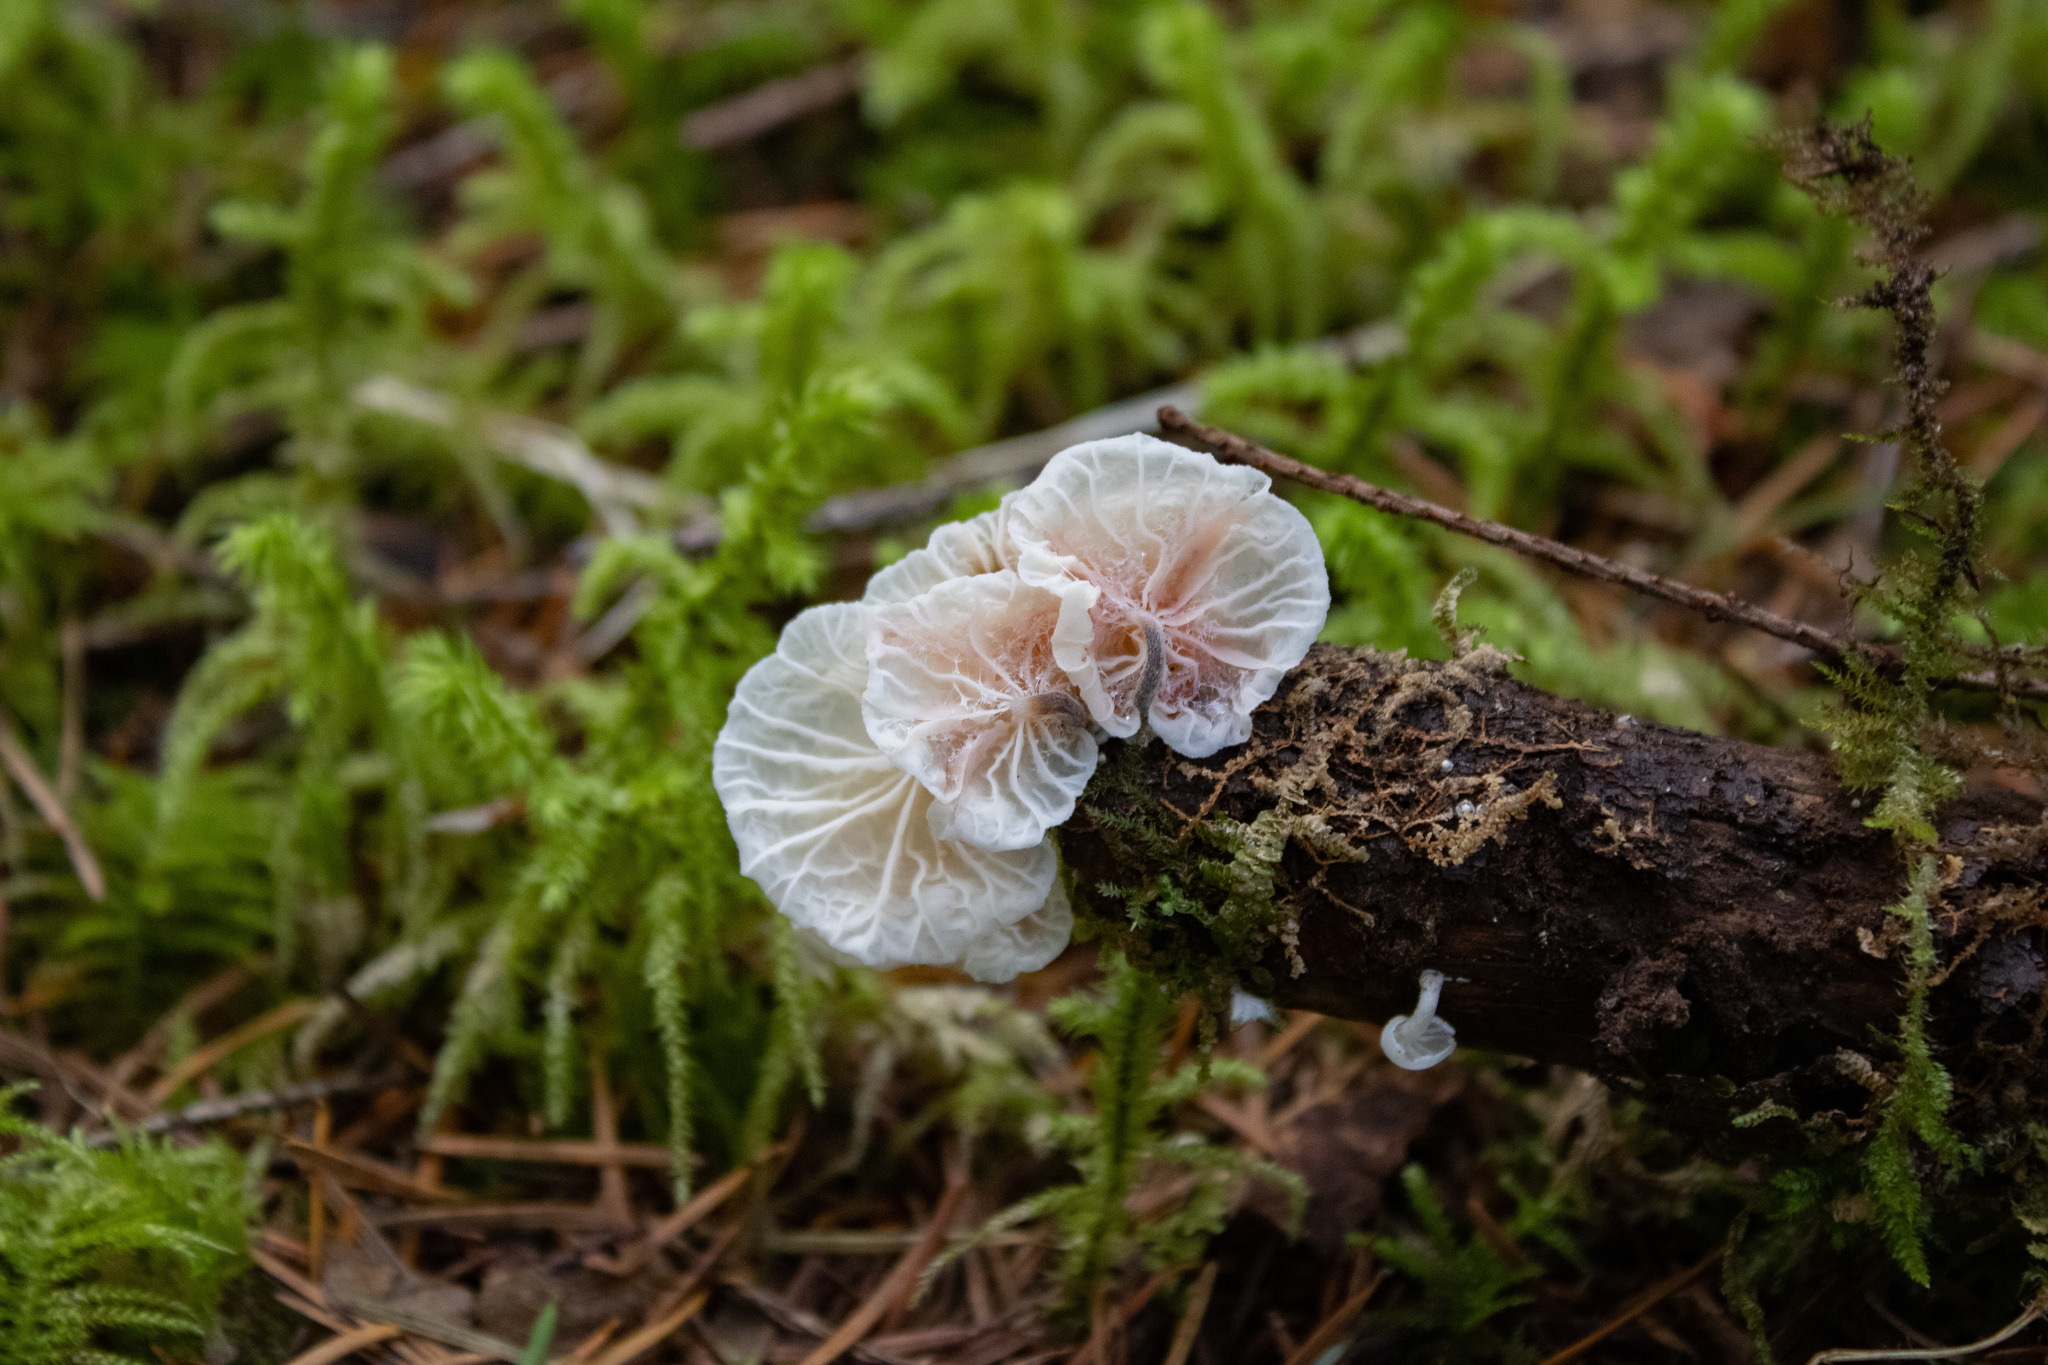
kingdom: Fungi
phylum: Basidiomycota
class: Agaricomycetes
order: Agaricales
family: Omphalotaceae
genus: Marasmiellus
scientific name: Marasmiellus candidus
